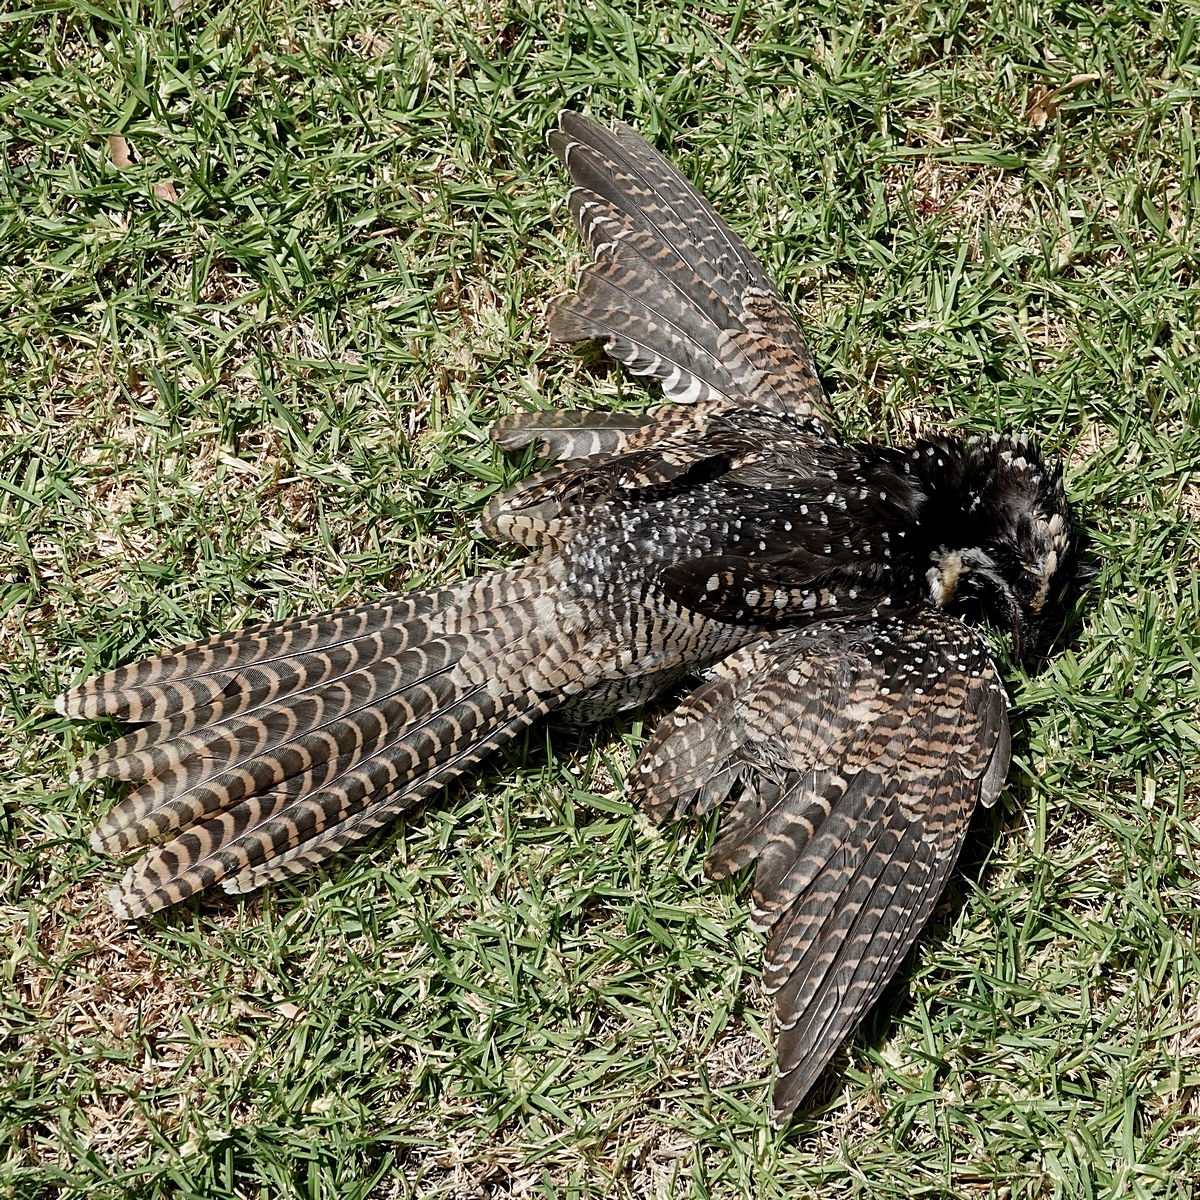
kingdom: Animalia
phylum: Chordata
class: Aves
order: Cuculiformes
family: Cuculidae
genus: Eudynamys
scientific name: Eudynamys orientalis
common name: Pacific koel
